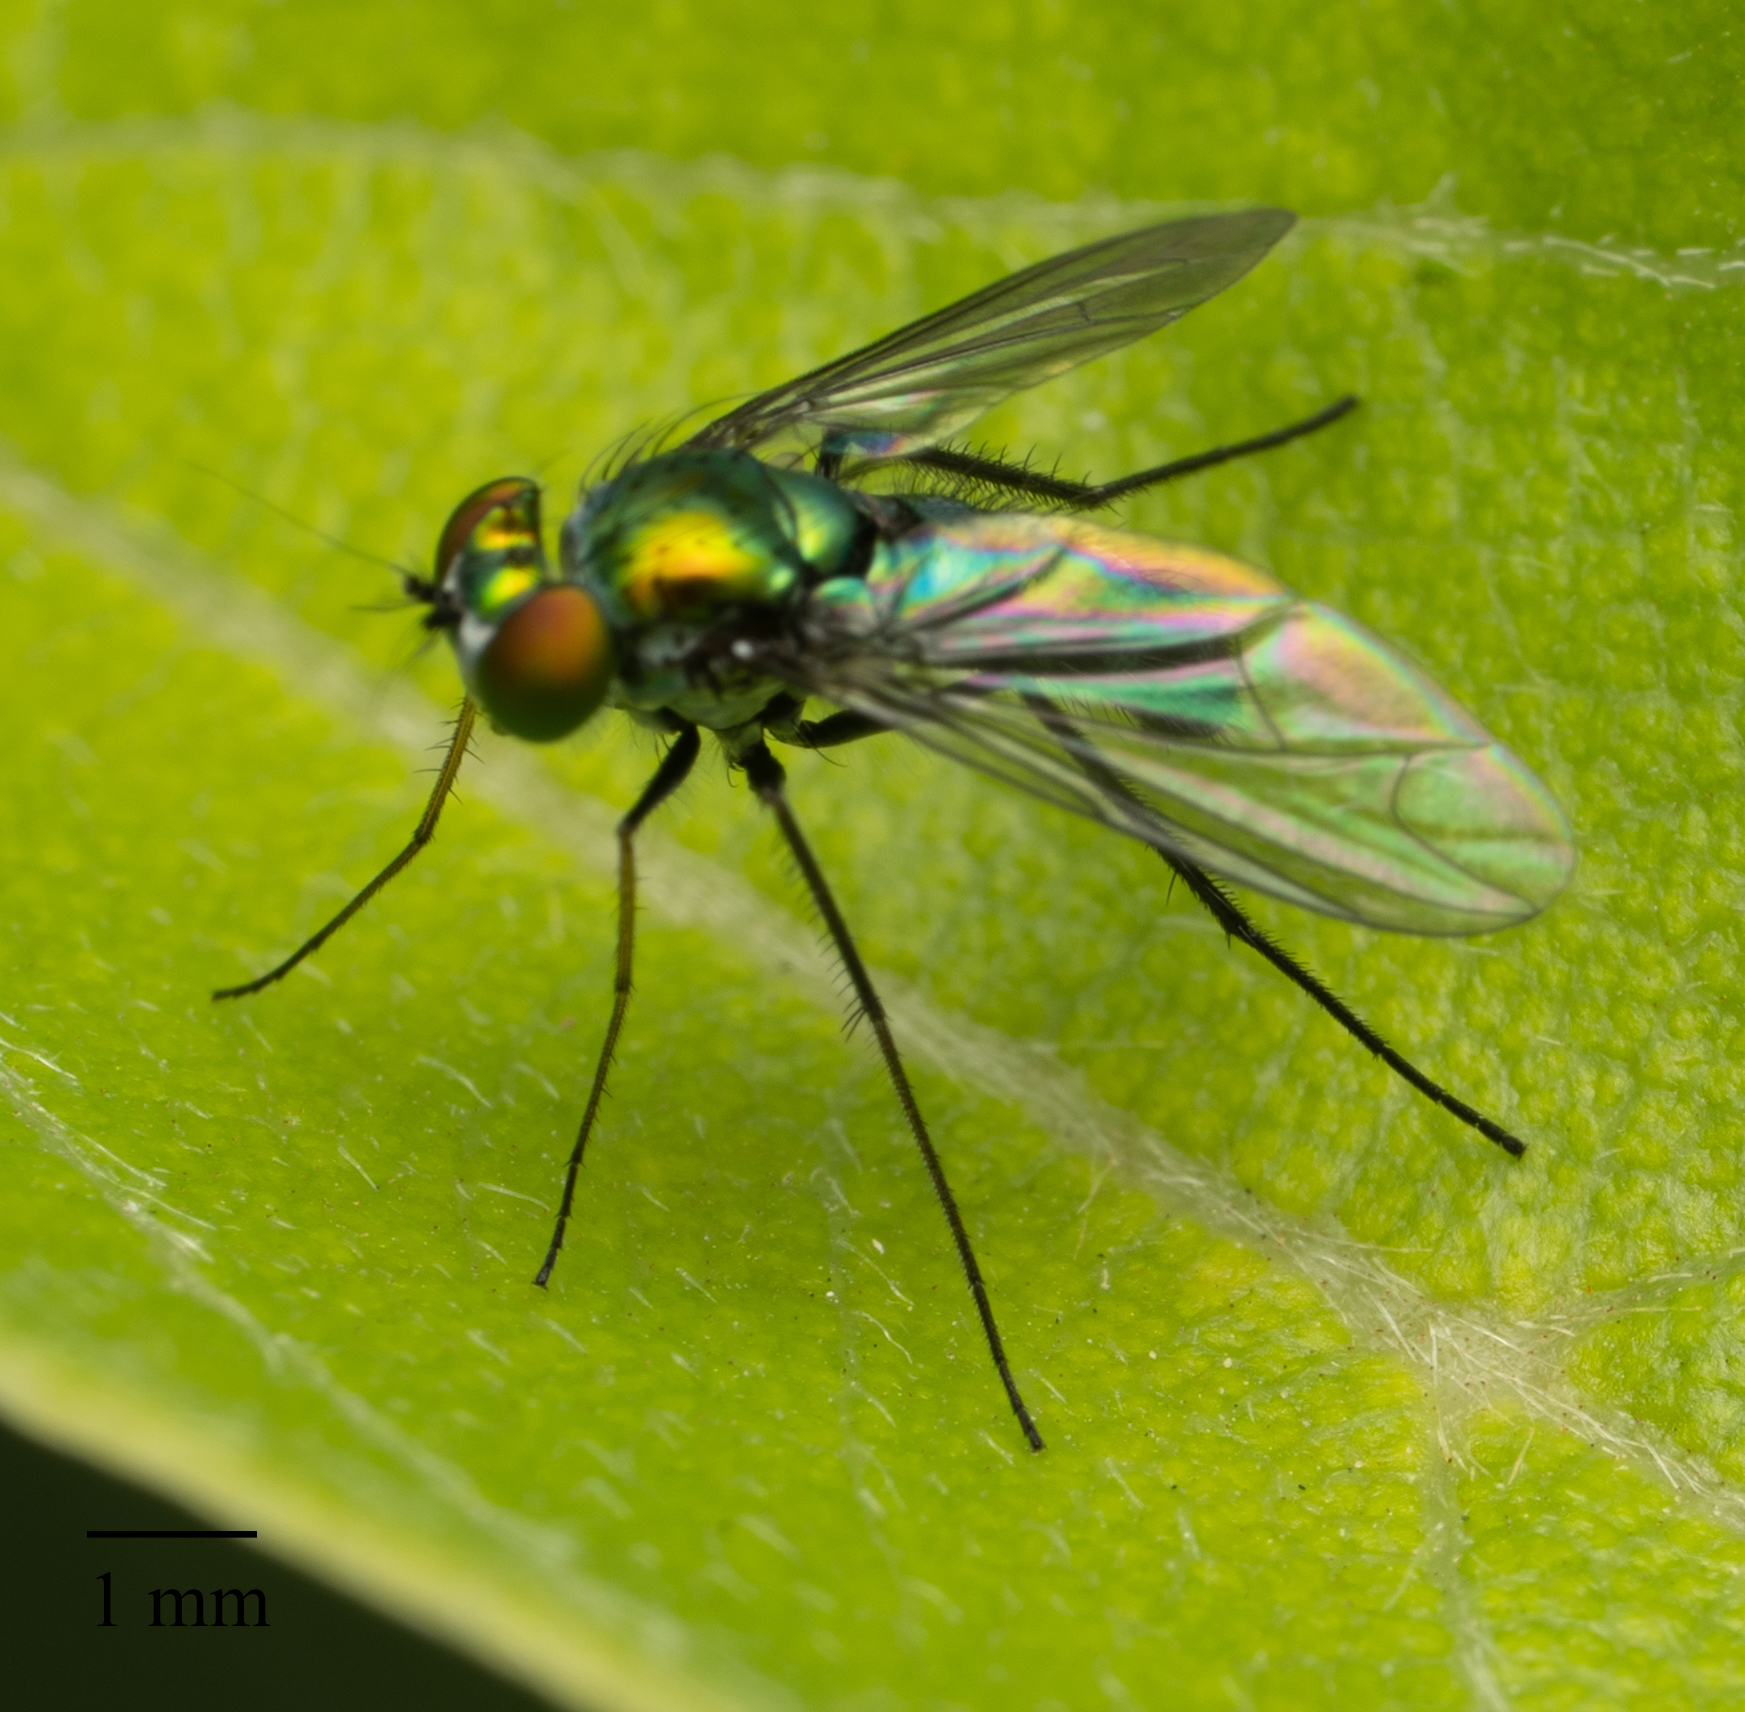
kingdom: Animalia
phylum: Arthropoda
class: Insecta
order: Diptera
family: Dolichopodidae
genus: Condylostylus
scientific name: Condylostylus longicornis
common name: Long-legged fly
